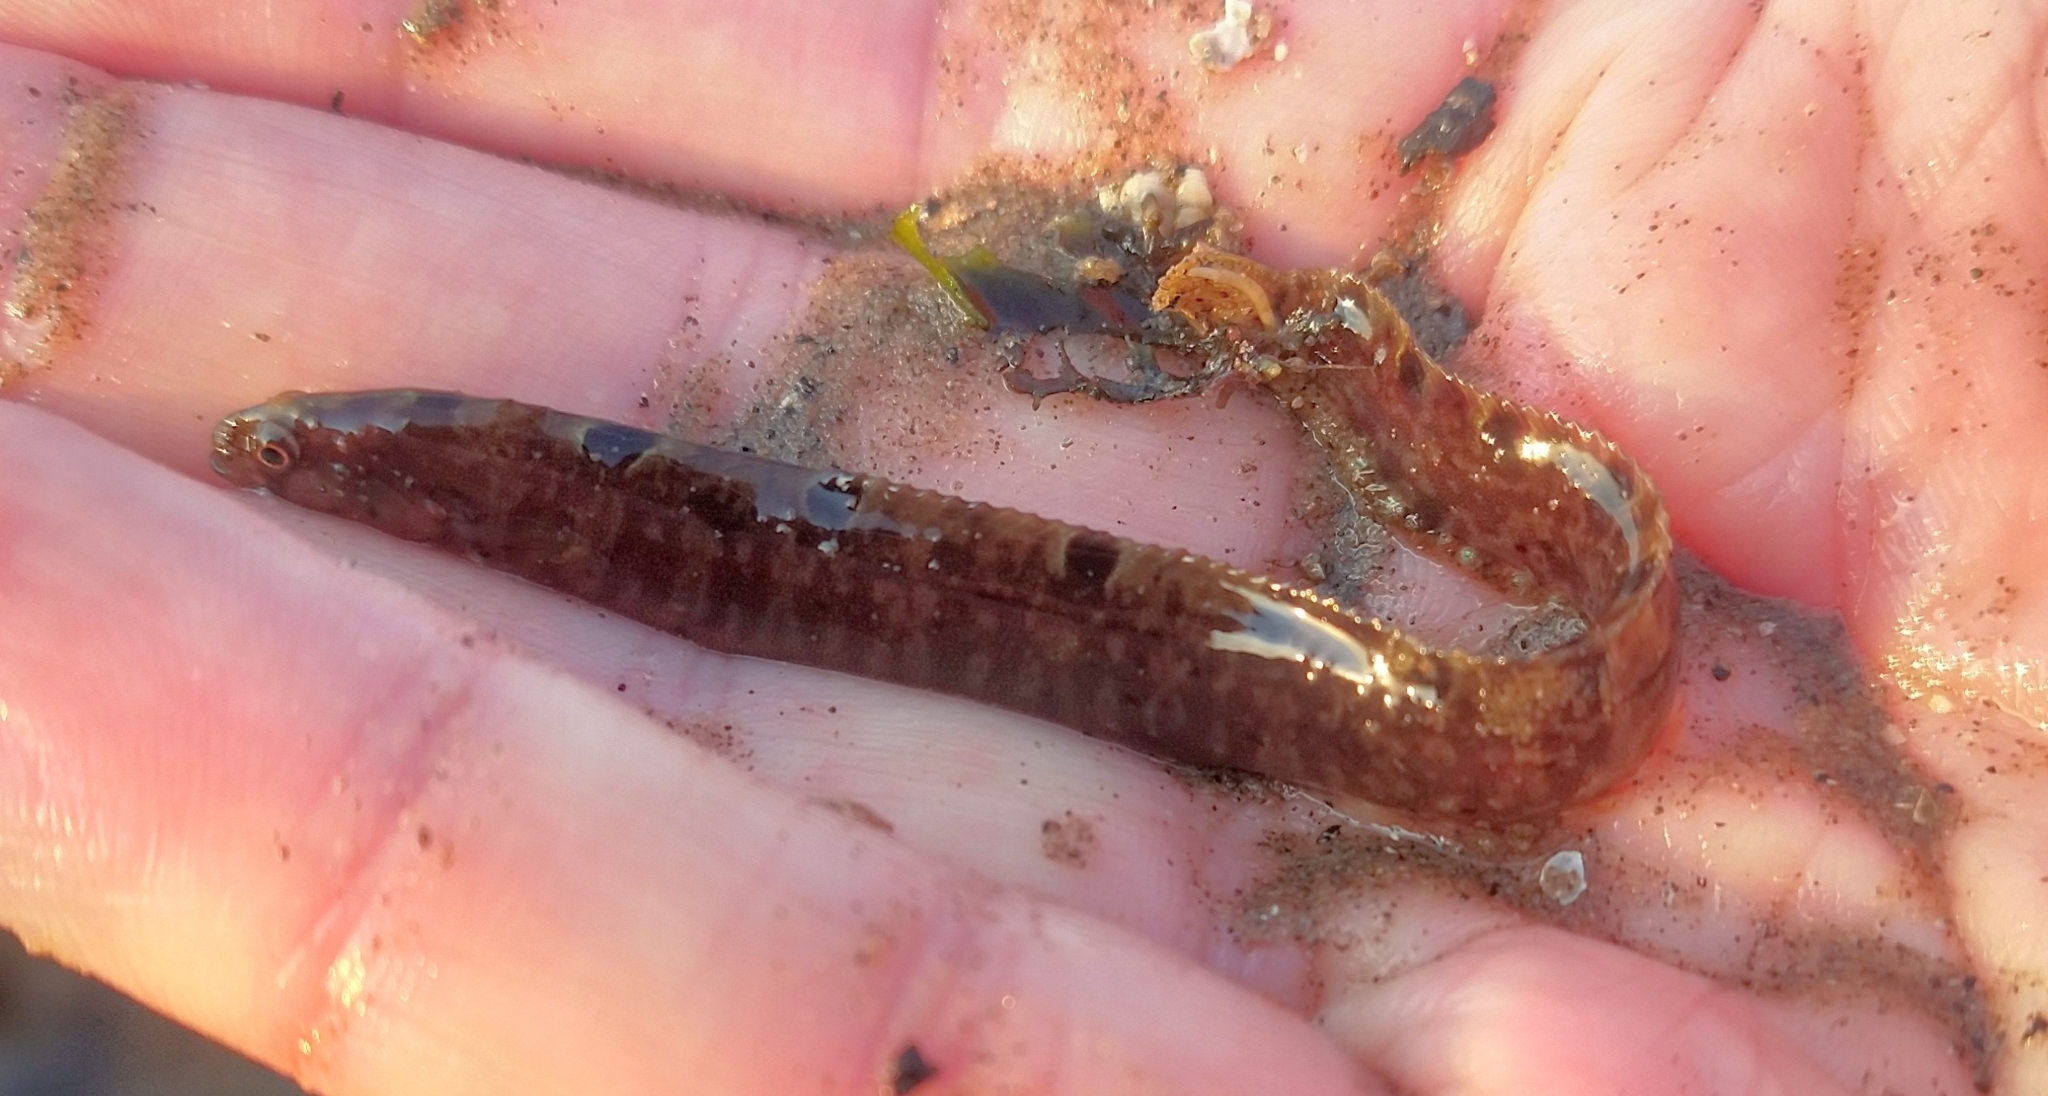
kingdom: Animalia
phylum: Chordata
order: Perciformes
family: Pholidae
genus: Pholis
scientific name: Pholis gunnellus
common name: Butterfish
